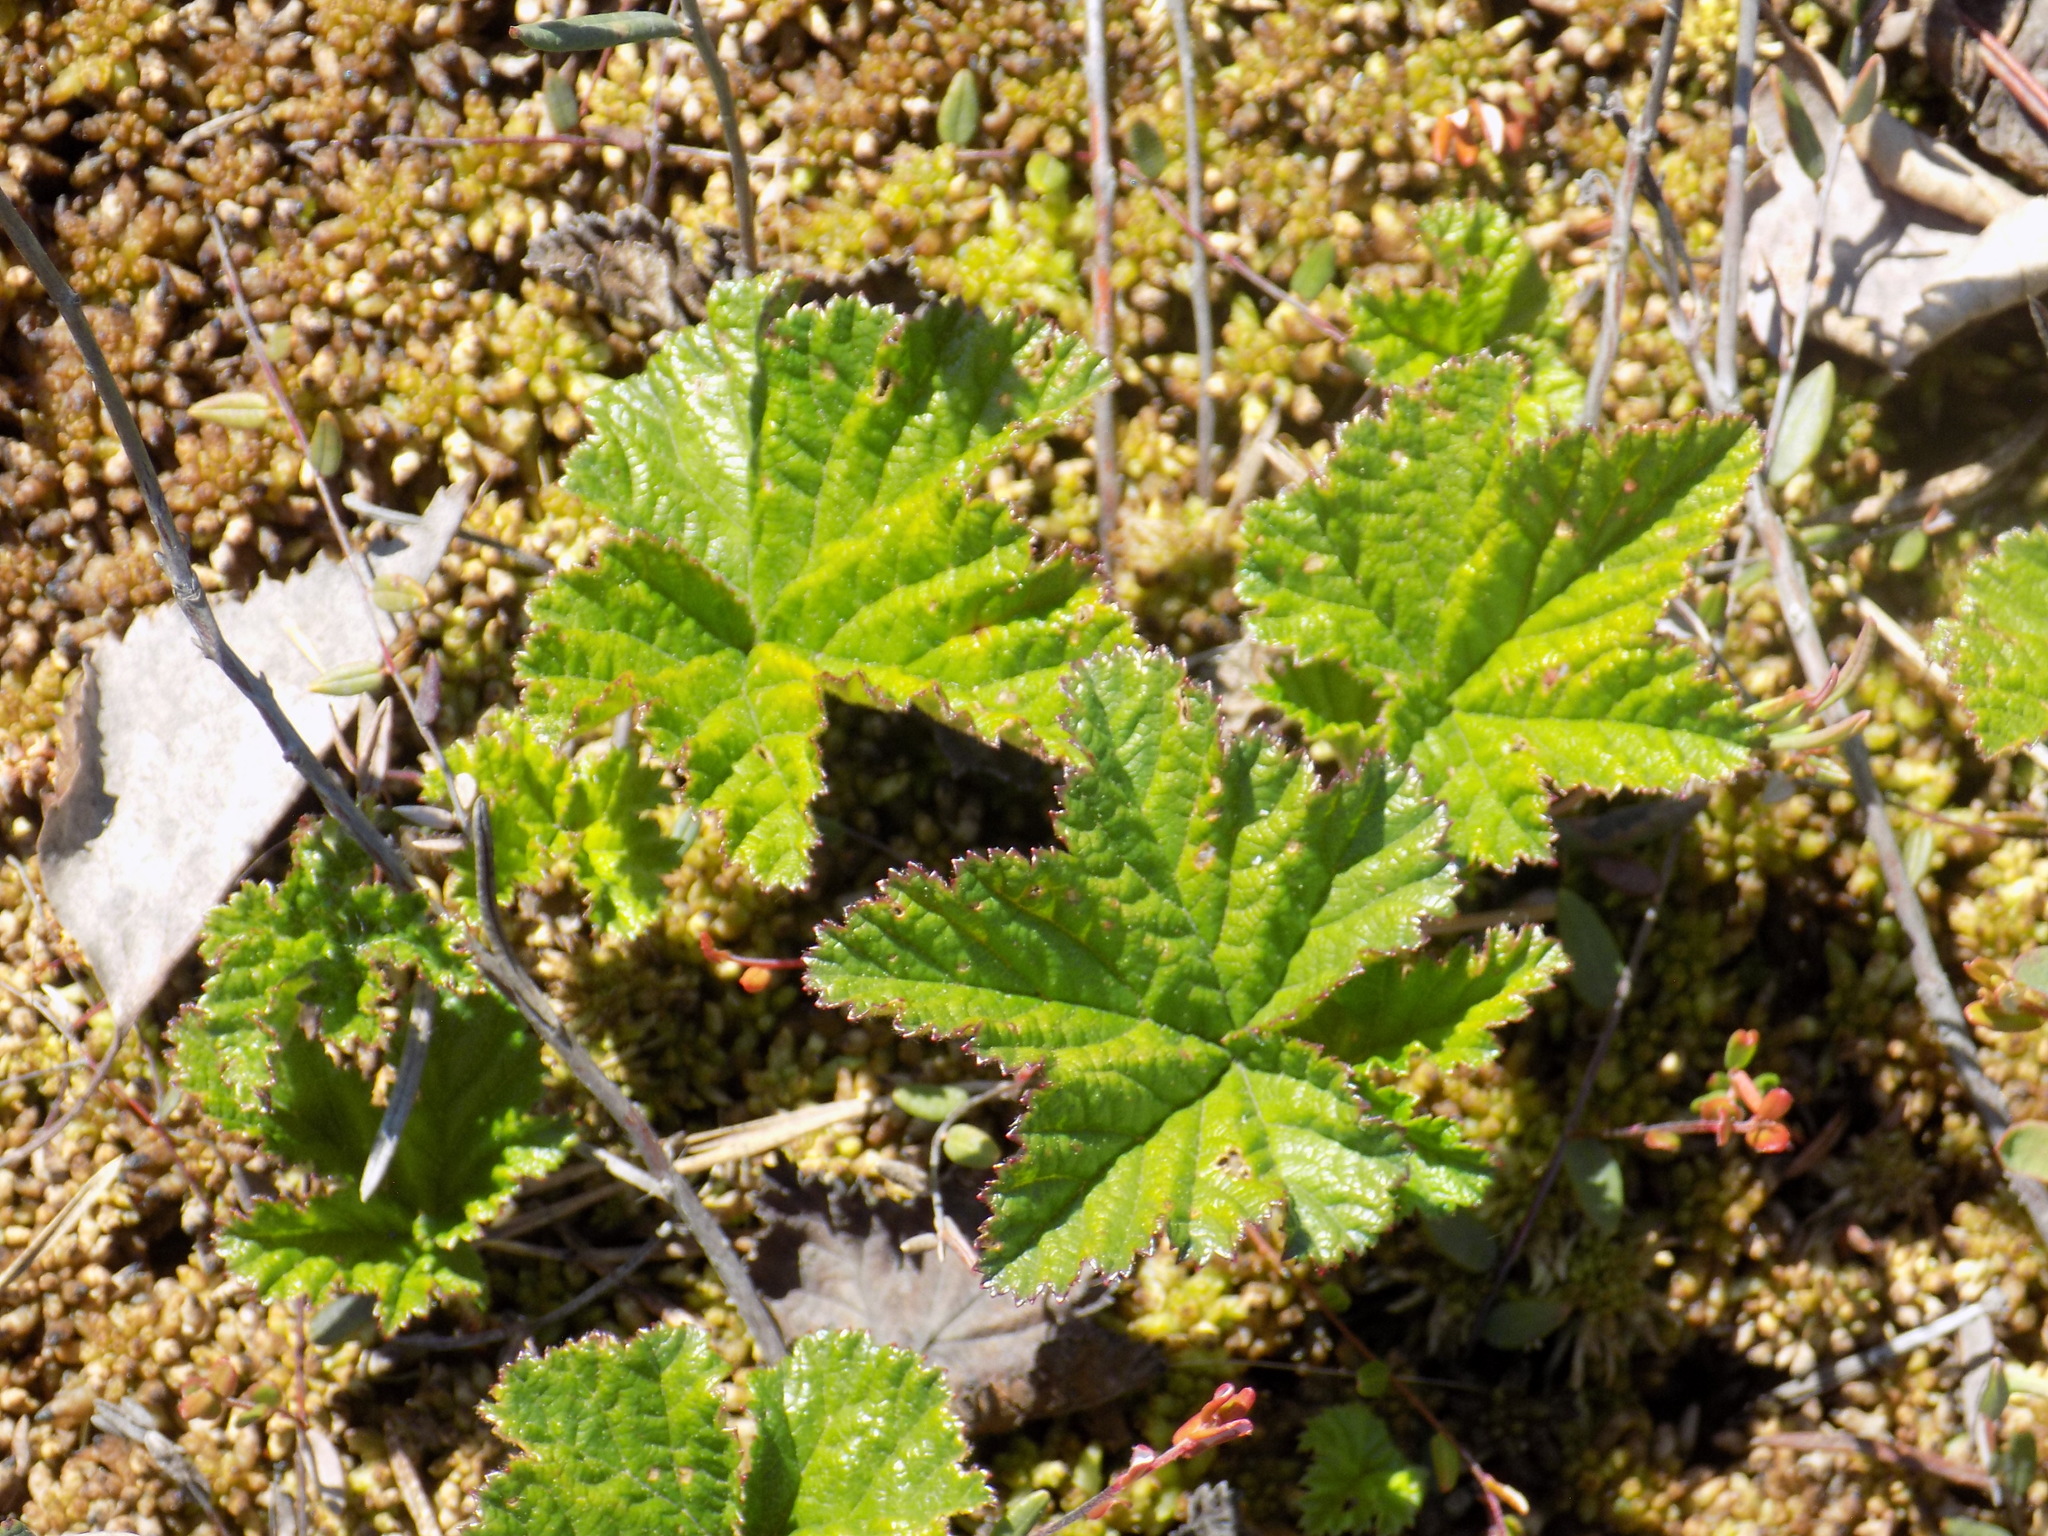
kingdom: Plantae
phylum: Tracheophyta
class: Magnoliopsida
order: Rosales
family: Rosaceae
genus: Rubus
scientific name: Rubus chamaemorus
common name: Cloudberry
